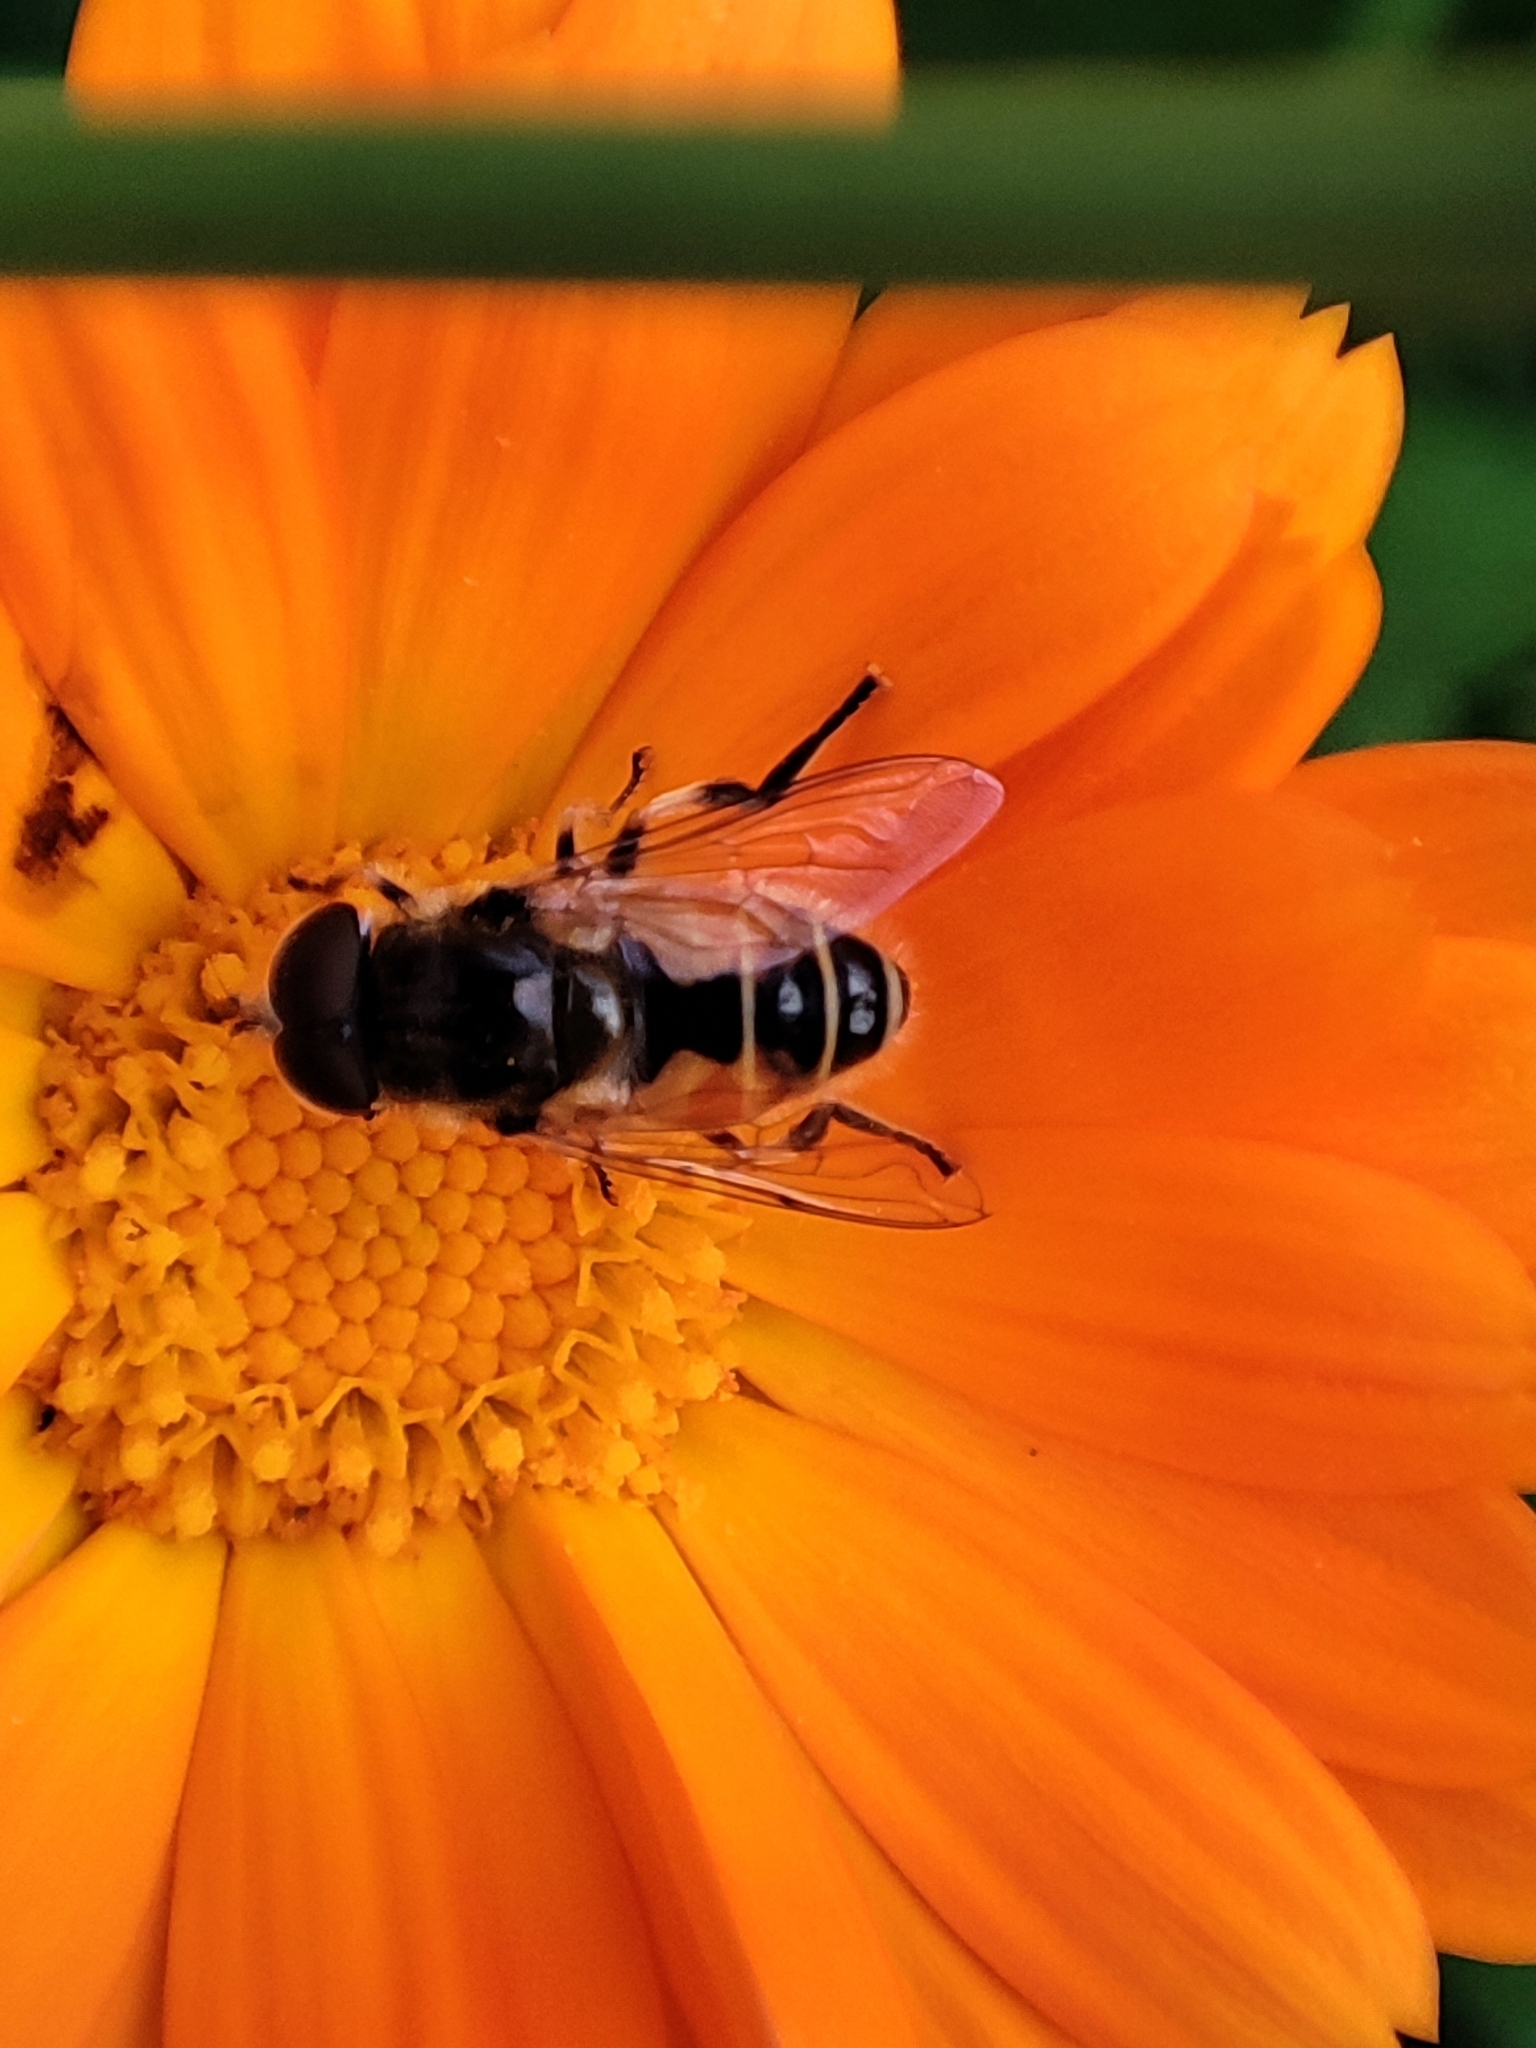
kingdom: Animalia
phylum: Arthropoda
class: Insecta
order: Diptera
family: Syrphidae
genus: Eristalis
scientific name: Eristalis arbustorum
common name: Hover fly
